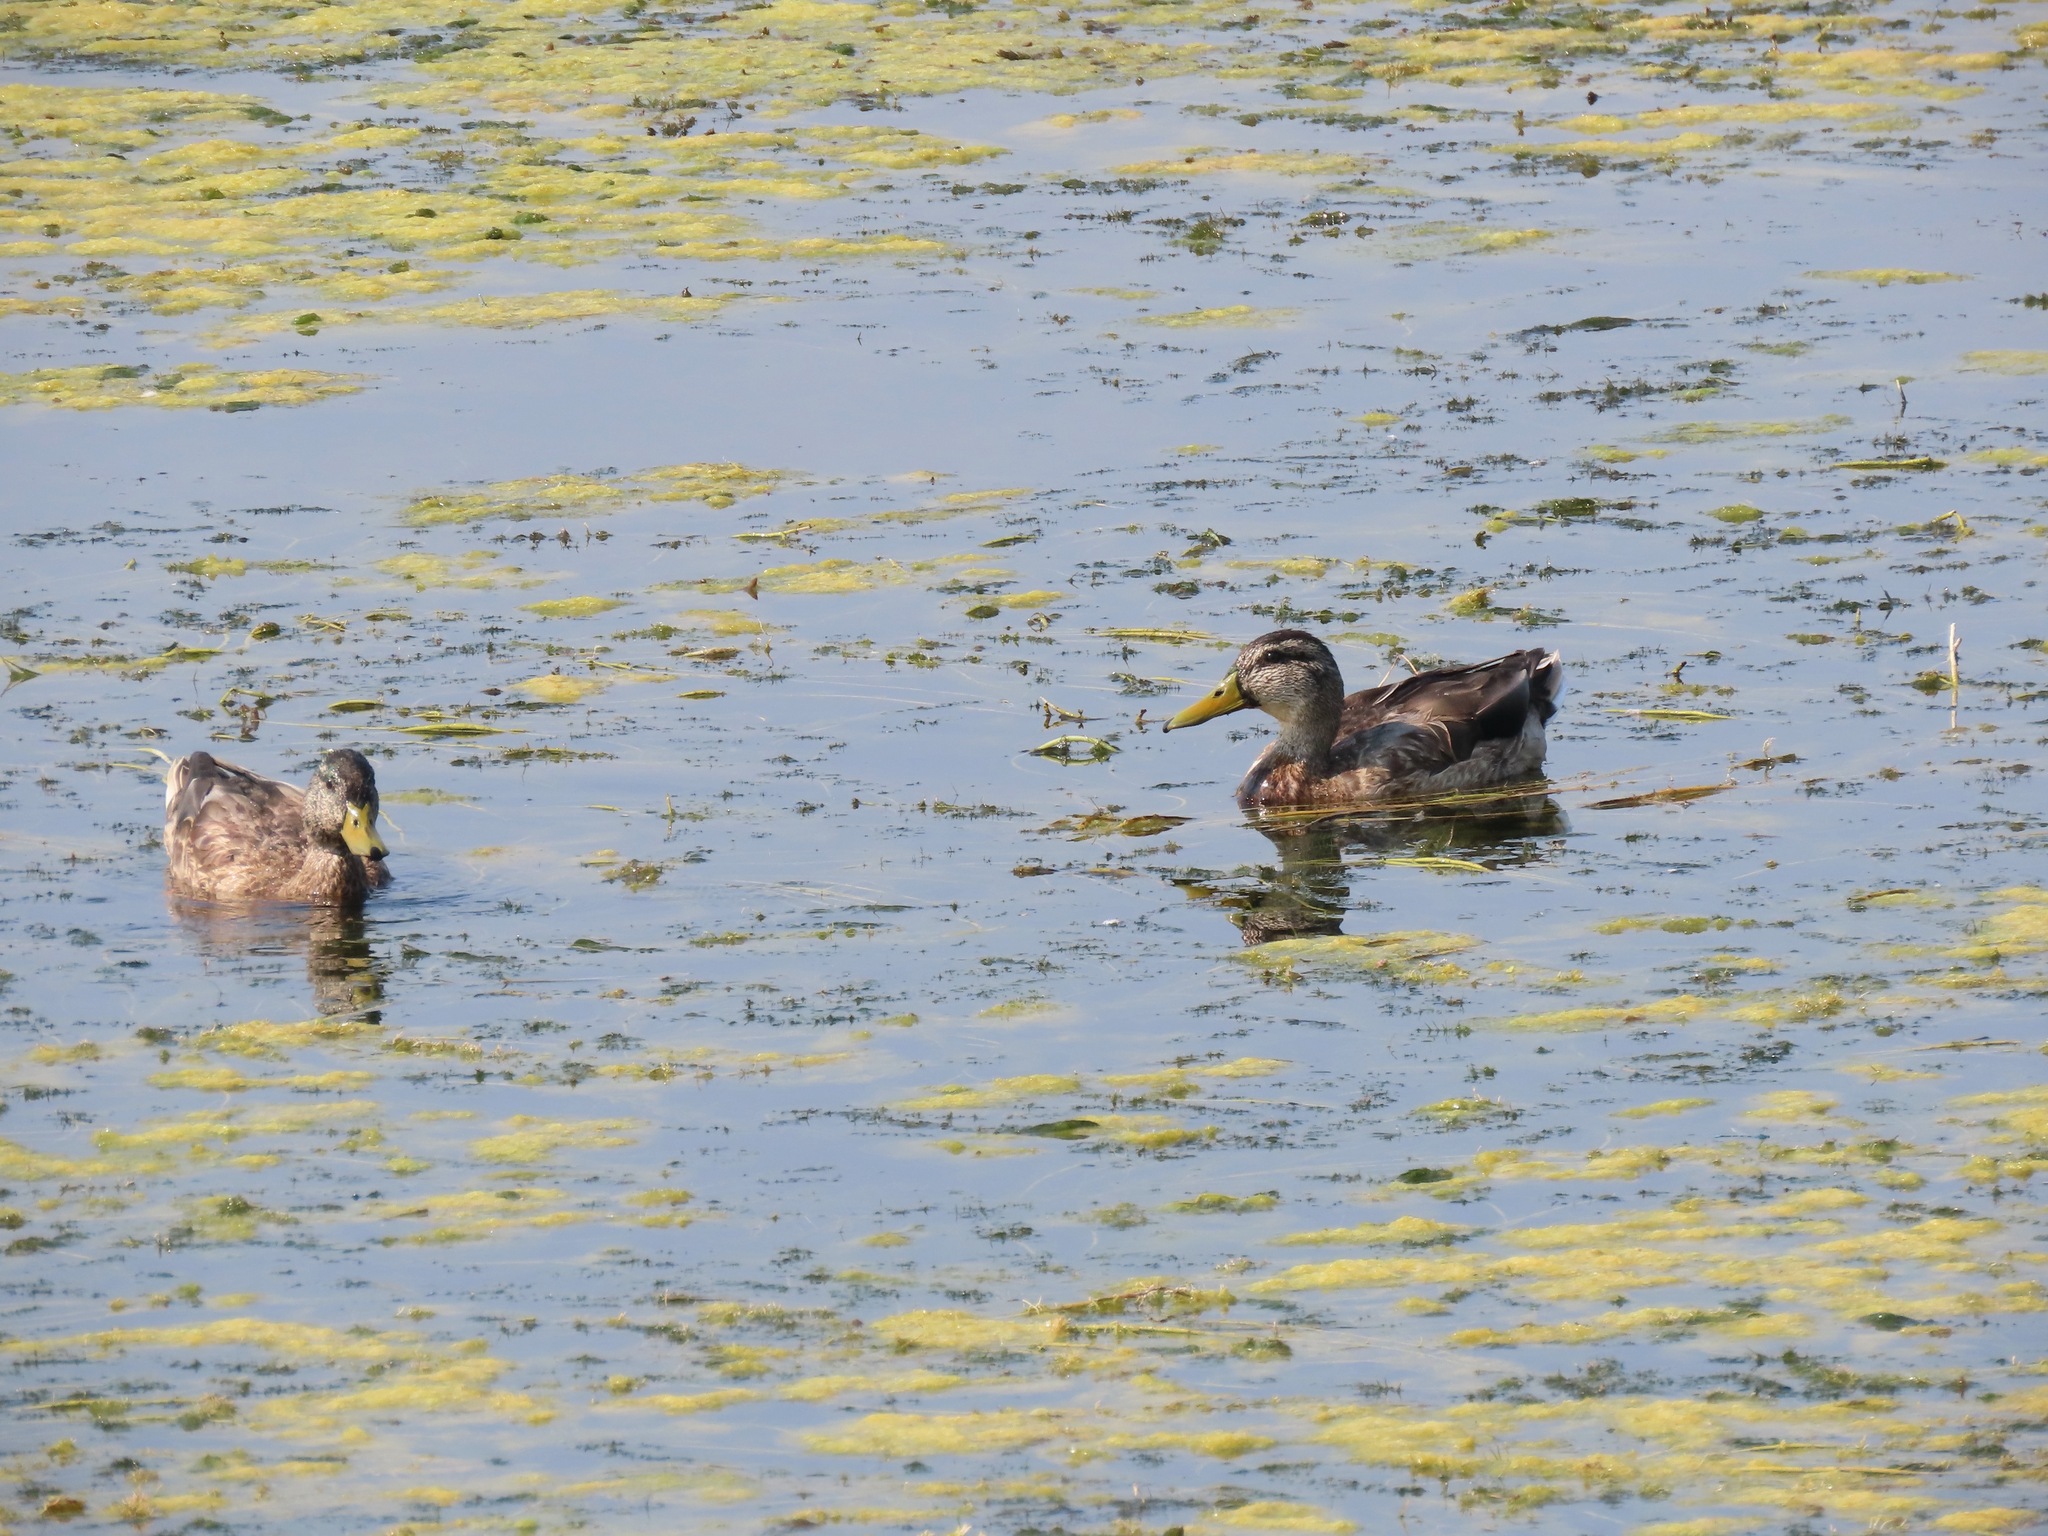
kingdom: Animalia
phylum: Chordata
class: Aves
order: Anseriformes
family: Anatidae
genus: Anas
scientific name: Anas platyrhynchos
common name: Mallard
